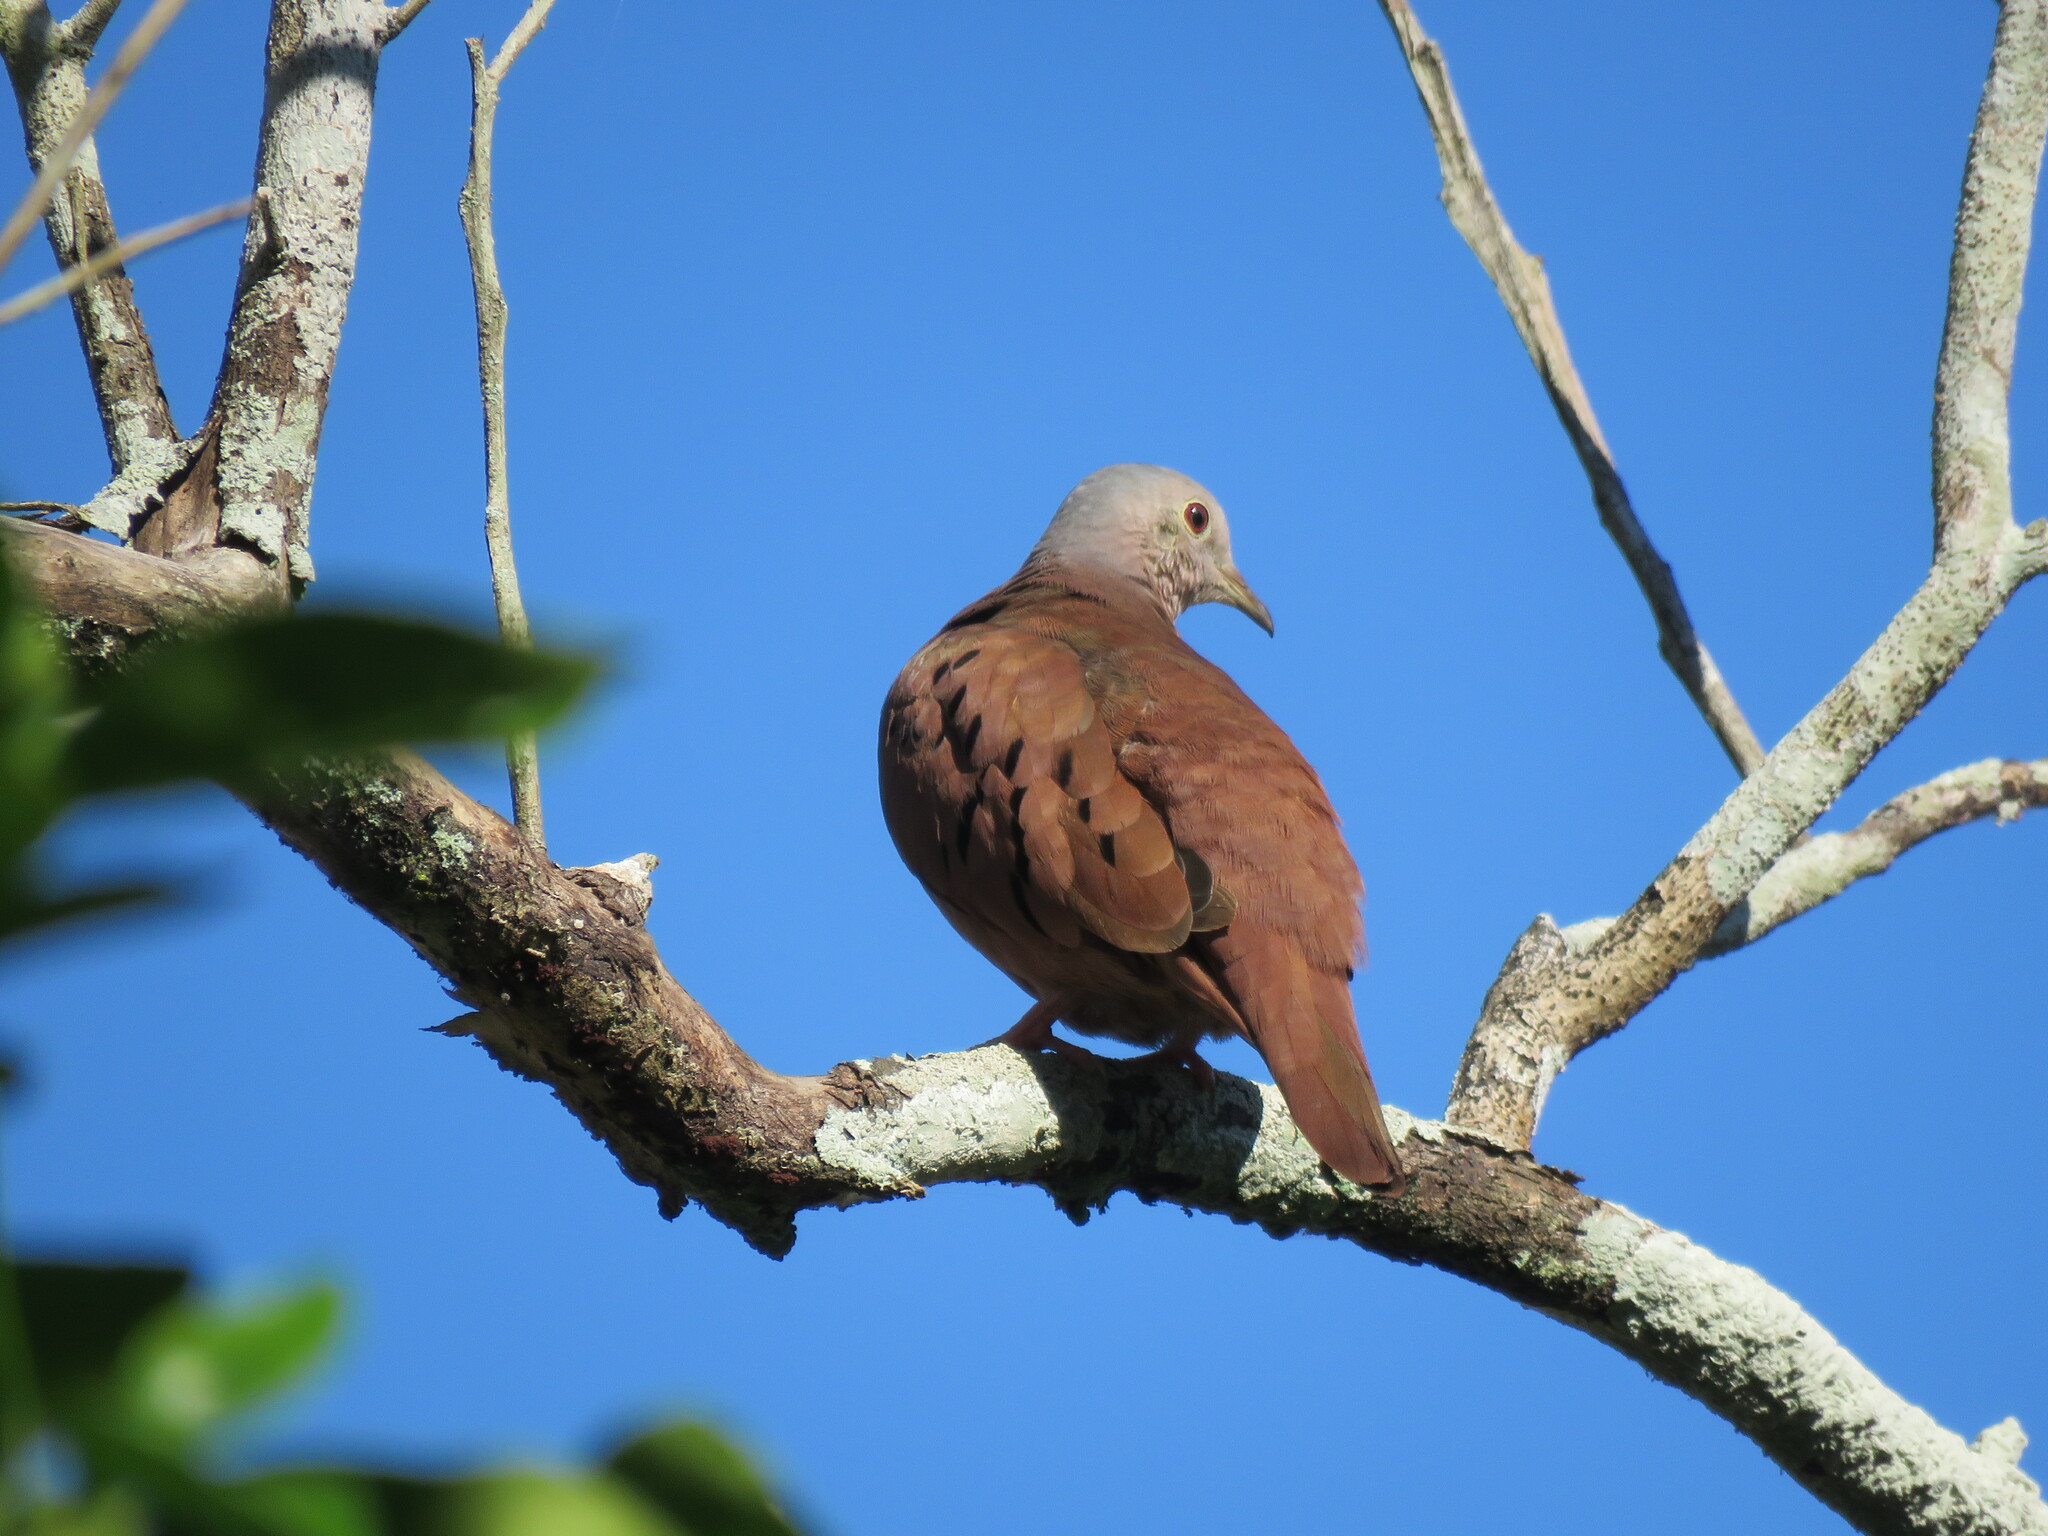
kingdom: Animalia
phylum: Chordata
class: Aves
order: Columbiformes
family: Columbidae
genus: Columbina
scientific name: Columbina talpacoti
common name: Ruddy ground dove
